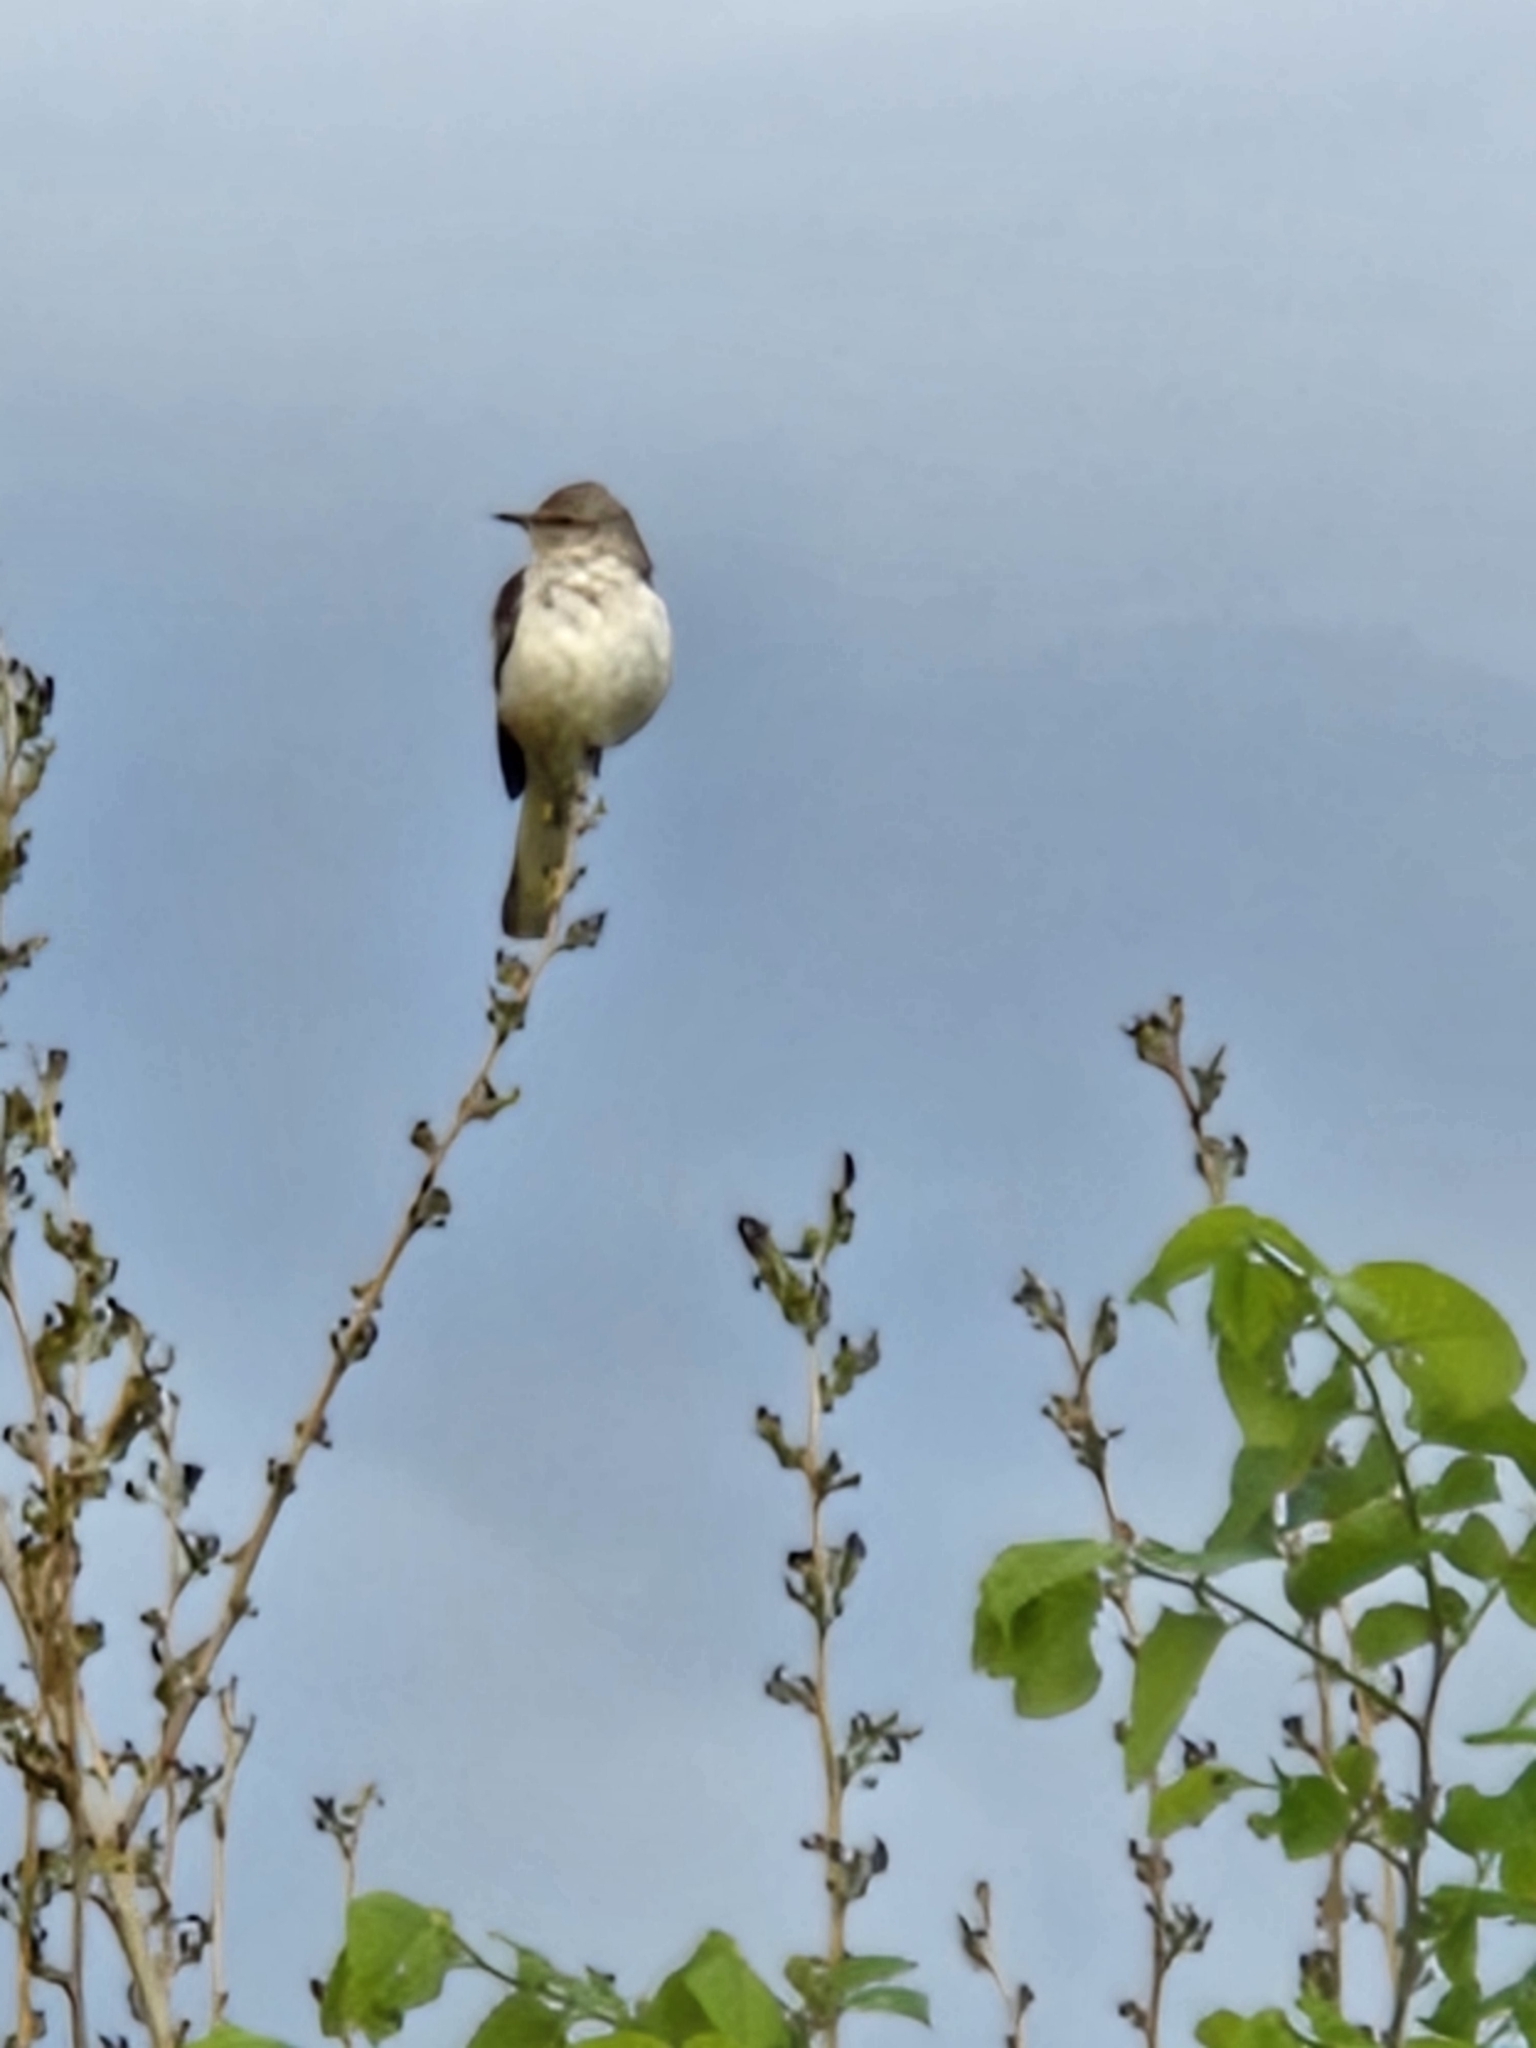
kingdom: Animalia
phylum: Chordata
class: Aves
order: Passeriformes
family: Mimidae
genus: Mimus
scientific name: Mimus polyglottos
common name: Northern mockingbird
